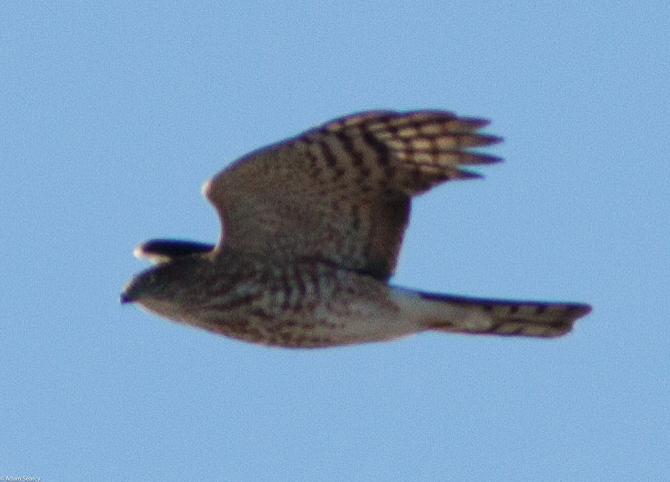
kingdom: Animalia
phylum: Chordata
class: Aves
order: Accipitriformes
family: Accipitridae
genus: Accipiter
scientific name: Accipiter striatus
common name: Sharp-shinned hawk
